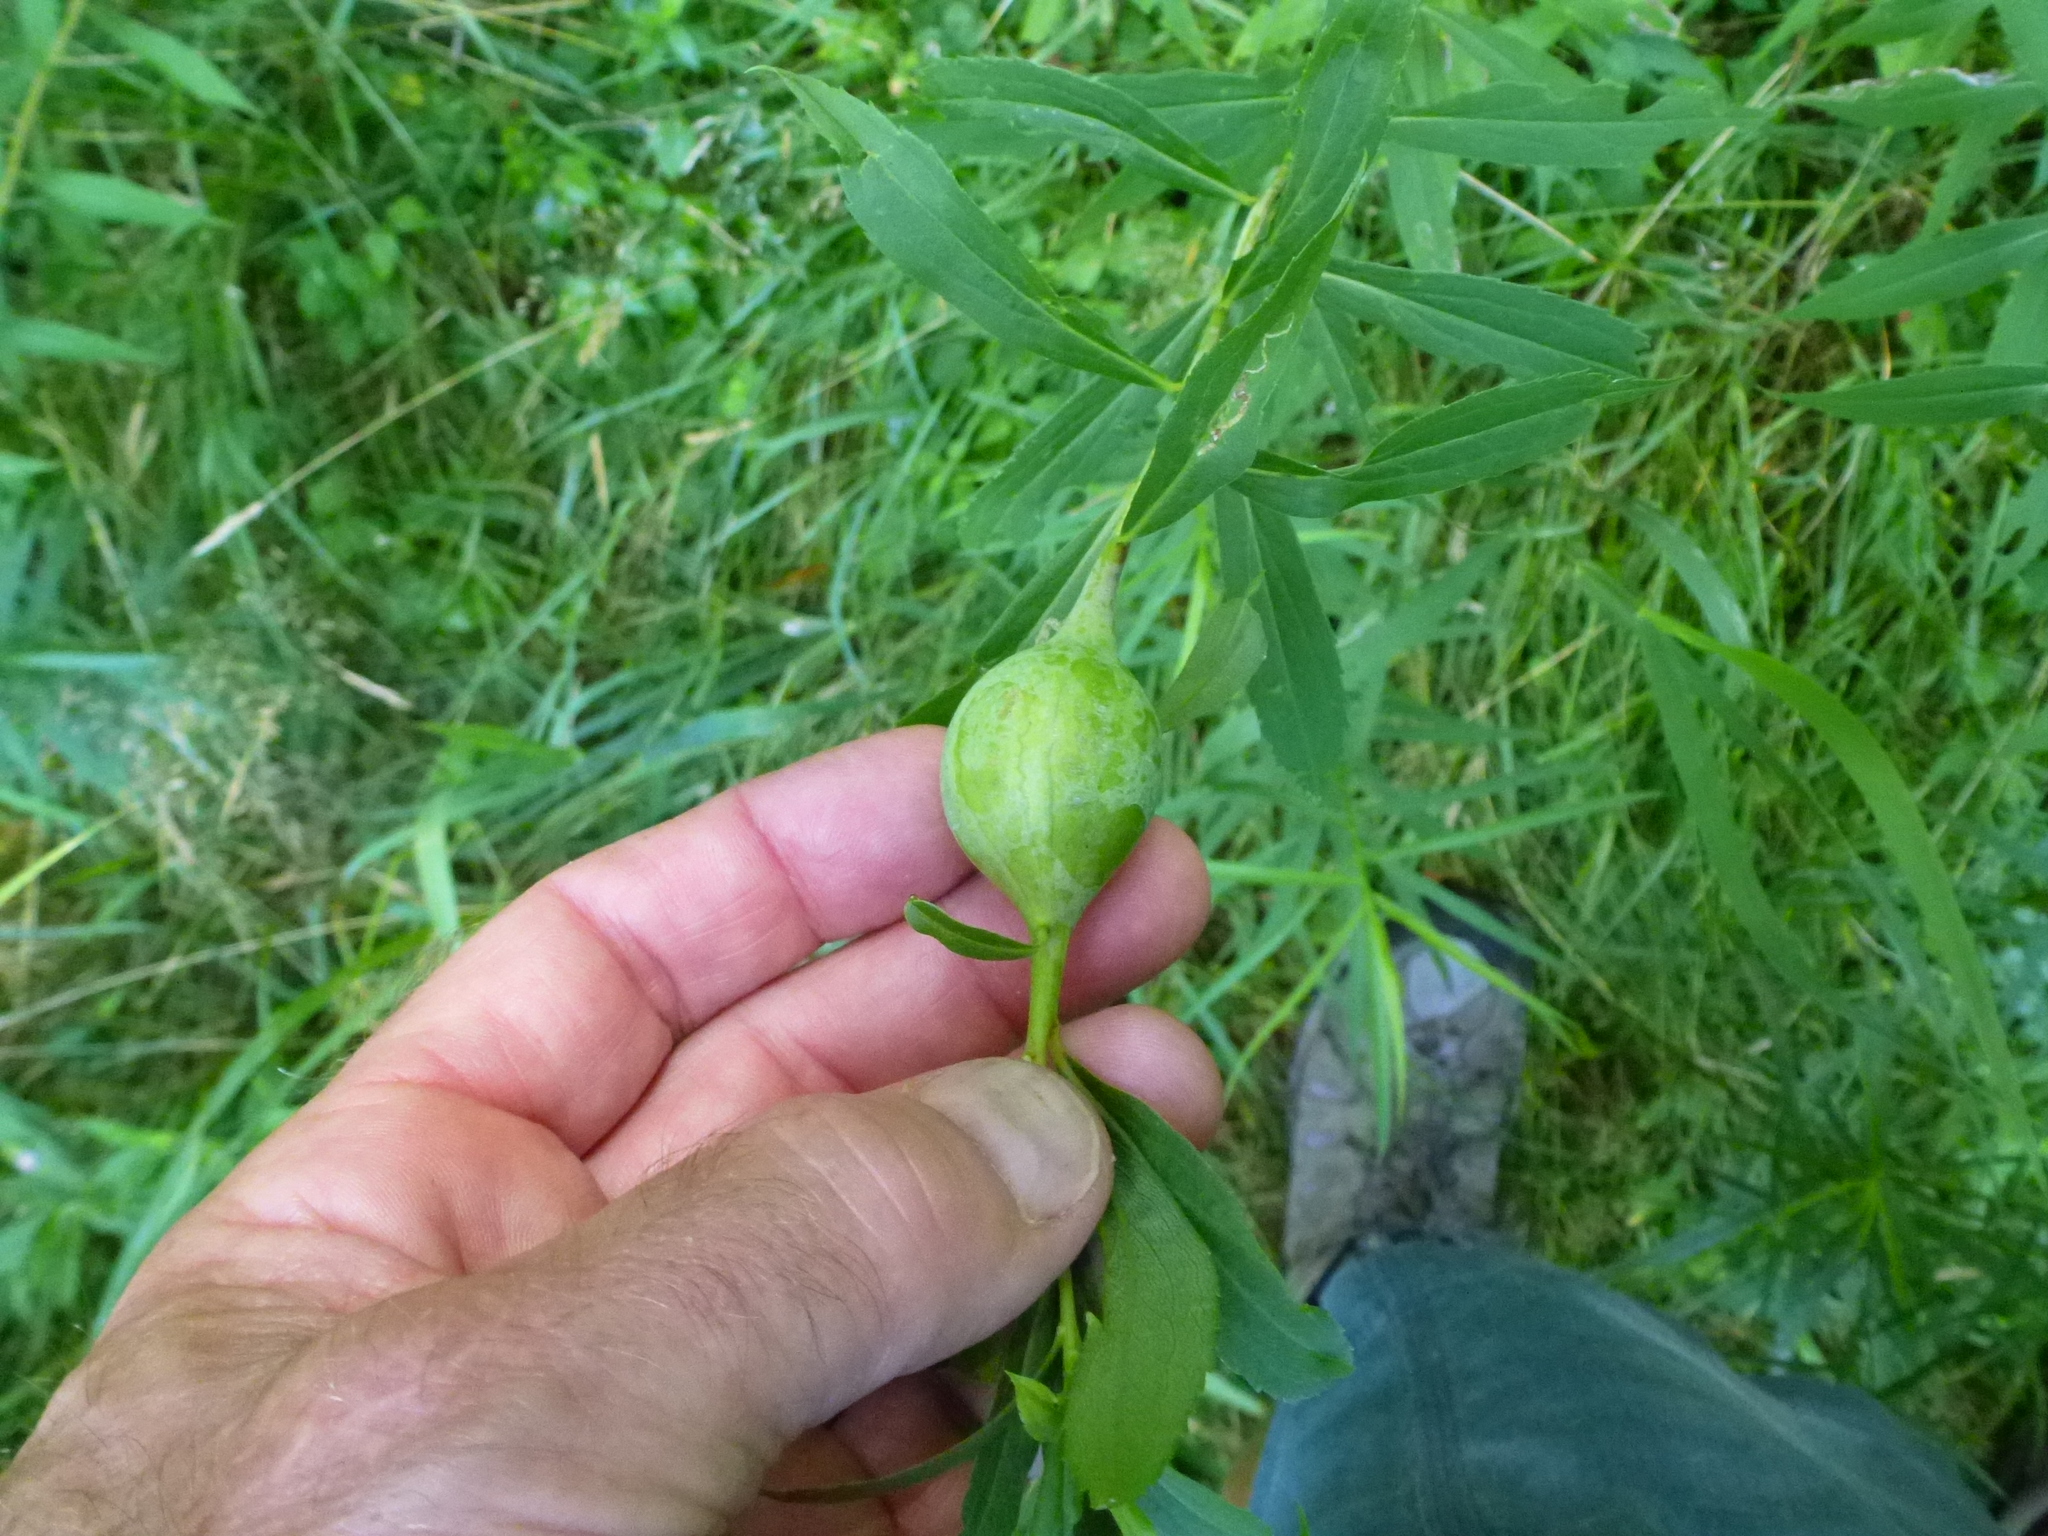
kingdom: Animalia
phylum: Arthropoda
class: Insecta
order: Diptera
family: Tephritidae
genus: Eurosta
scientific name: Eurosta solidaginis
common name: Goldenrod gall fly
